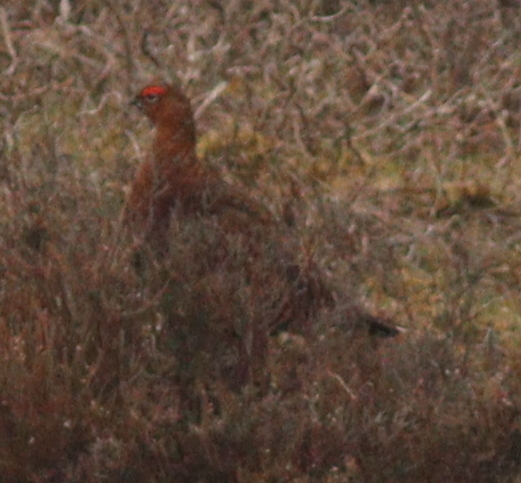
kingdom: Animalia
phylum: Chordata
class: Aves
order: Galliformes
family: Phasianidae
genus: Lagopus
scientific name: Lagopus lagopus
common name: Willow ptarmigan
